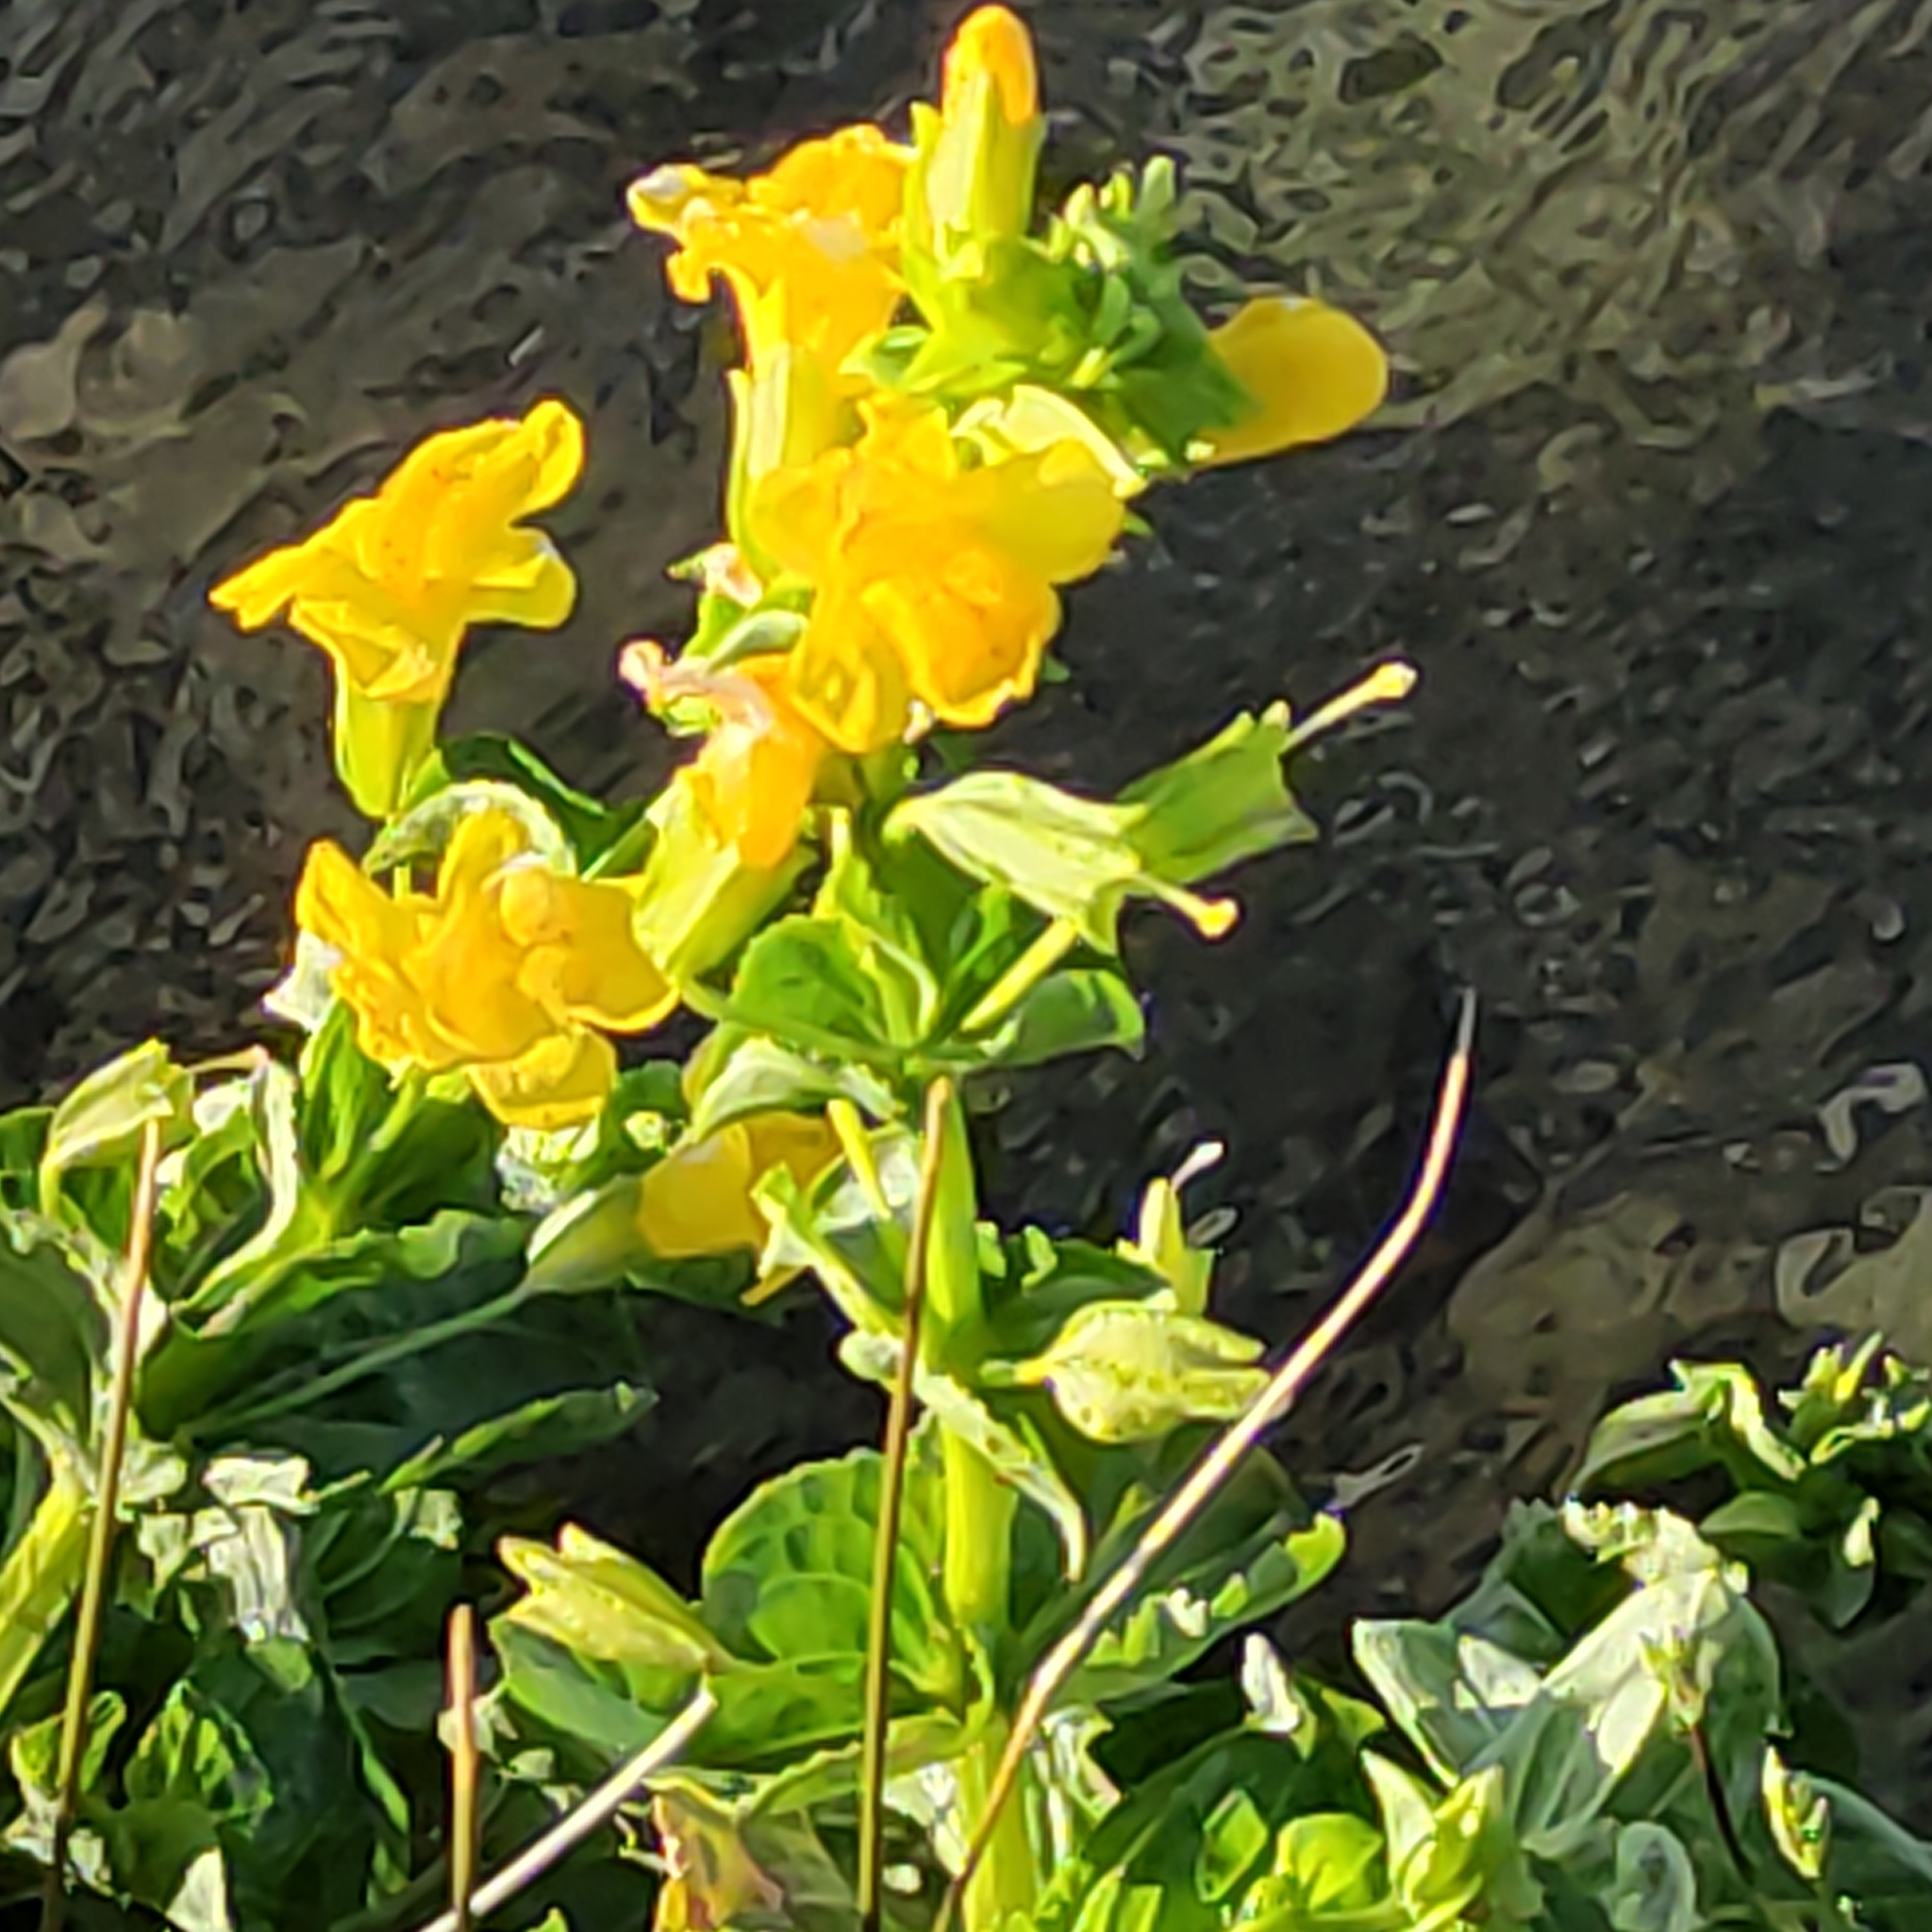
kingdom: Plantae
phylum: Tracheophyta
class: Magnoliopsida
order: Lamiales
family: Phrymaceae
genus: Erythranthe
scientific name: Erythranthe guttata
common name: Monkeyflower
